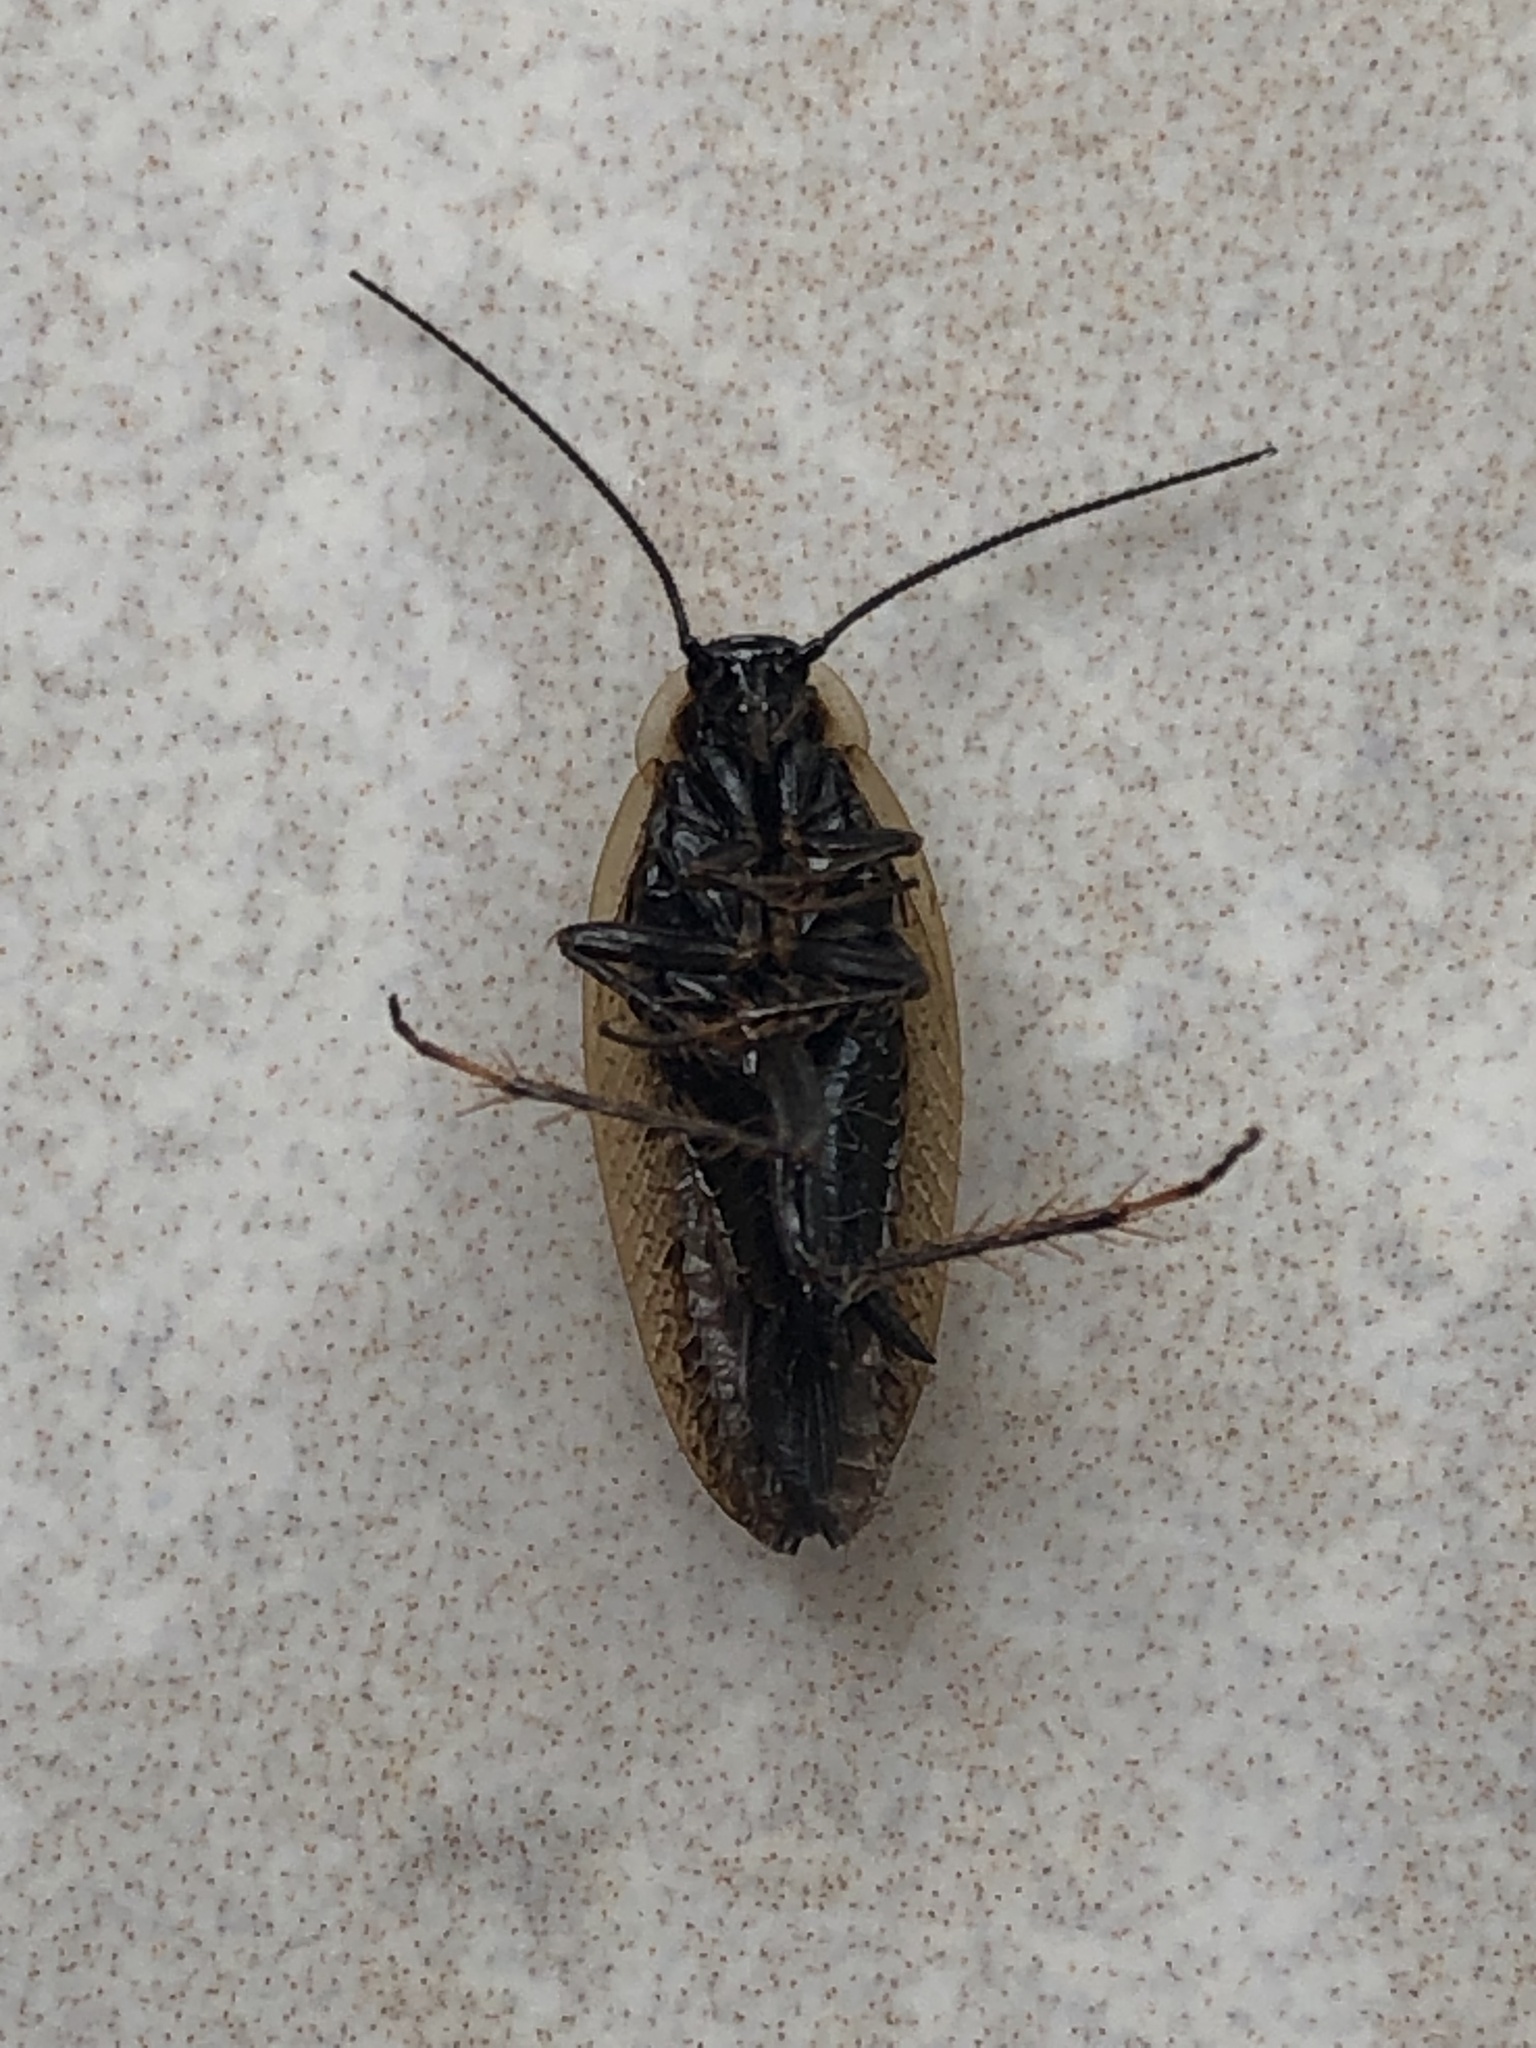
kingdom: Animalia
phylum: Arthropoda
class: Insecta
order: Blattodea
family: Ectobiidae
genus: Ectobius
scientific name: Ectobius lapponicus
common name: Dusky cockroach
